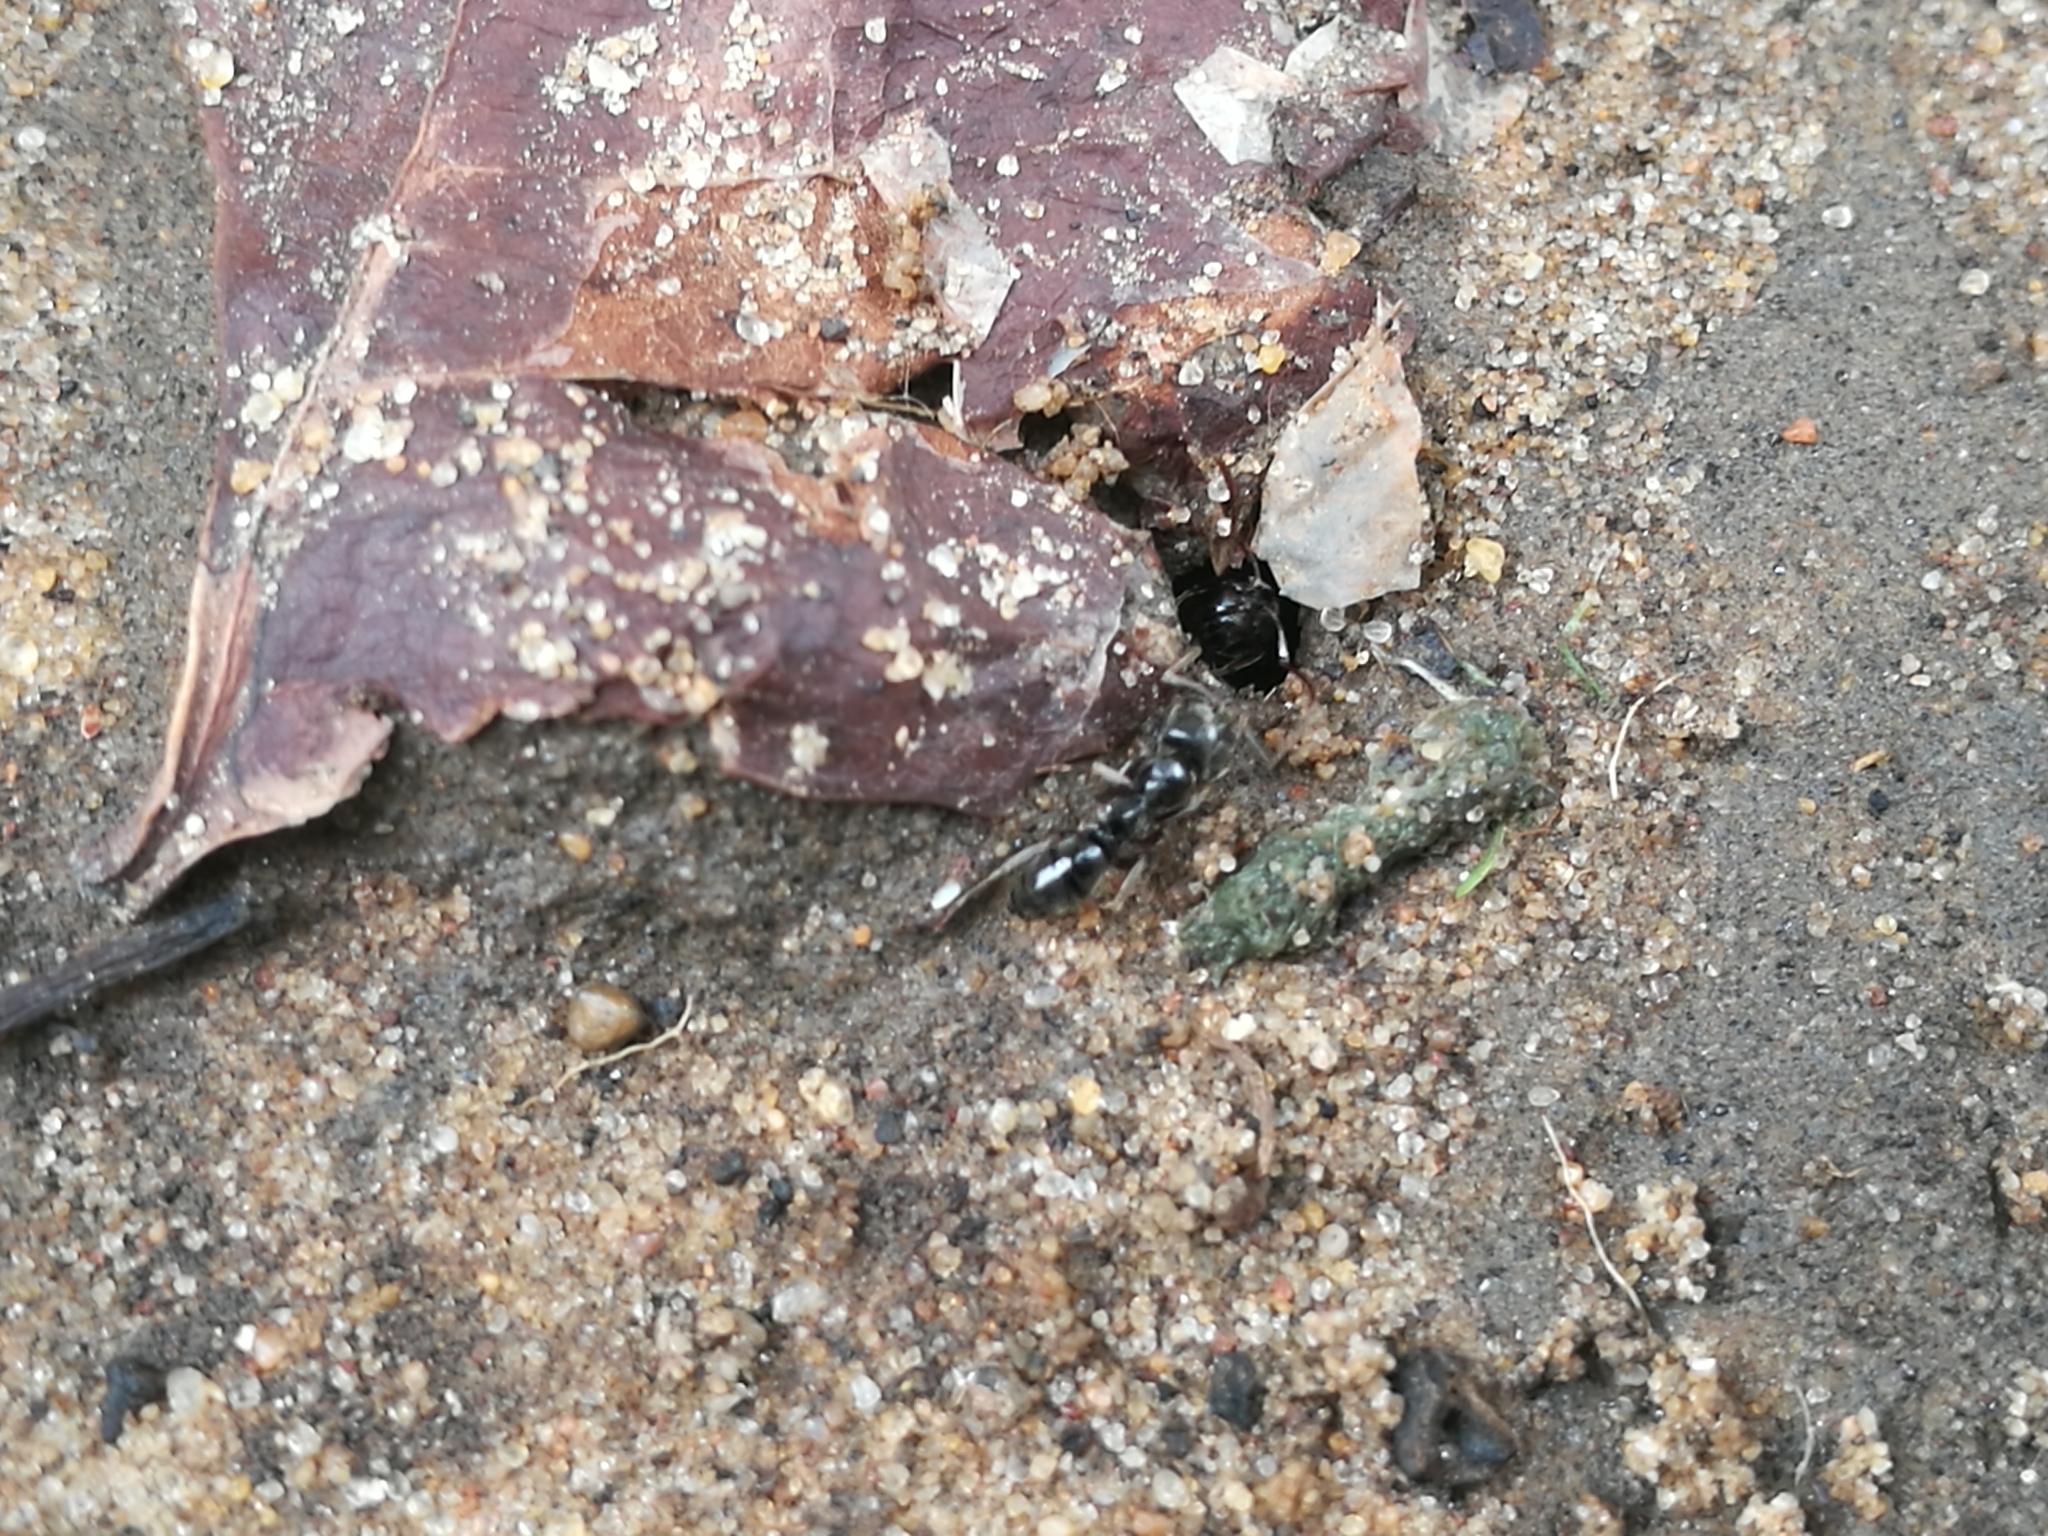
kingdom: Animalia
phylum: Arthropoda
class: Insecta
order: Hymenoptera
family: Formicidae
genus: Pachycondyla
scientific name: Pachycondyla sennaarensis
